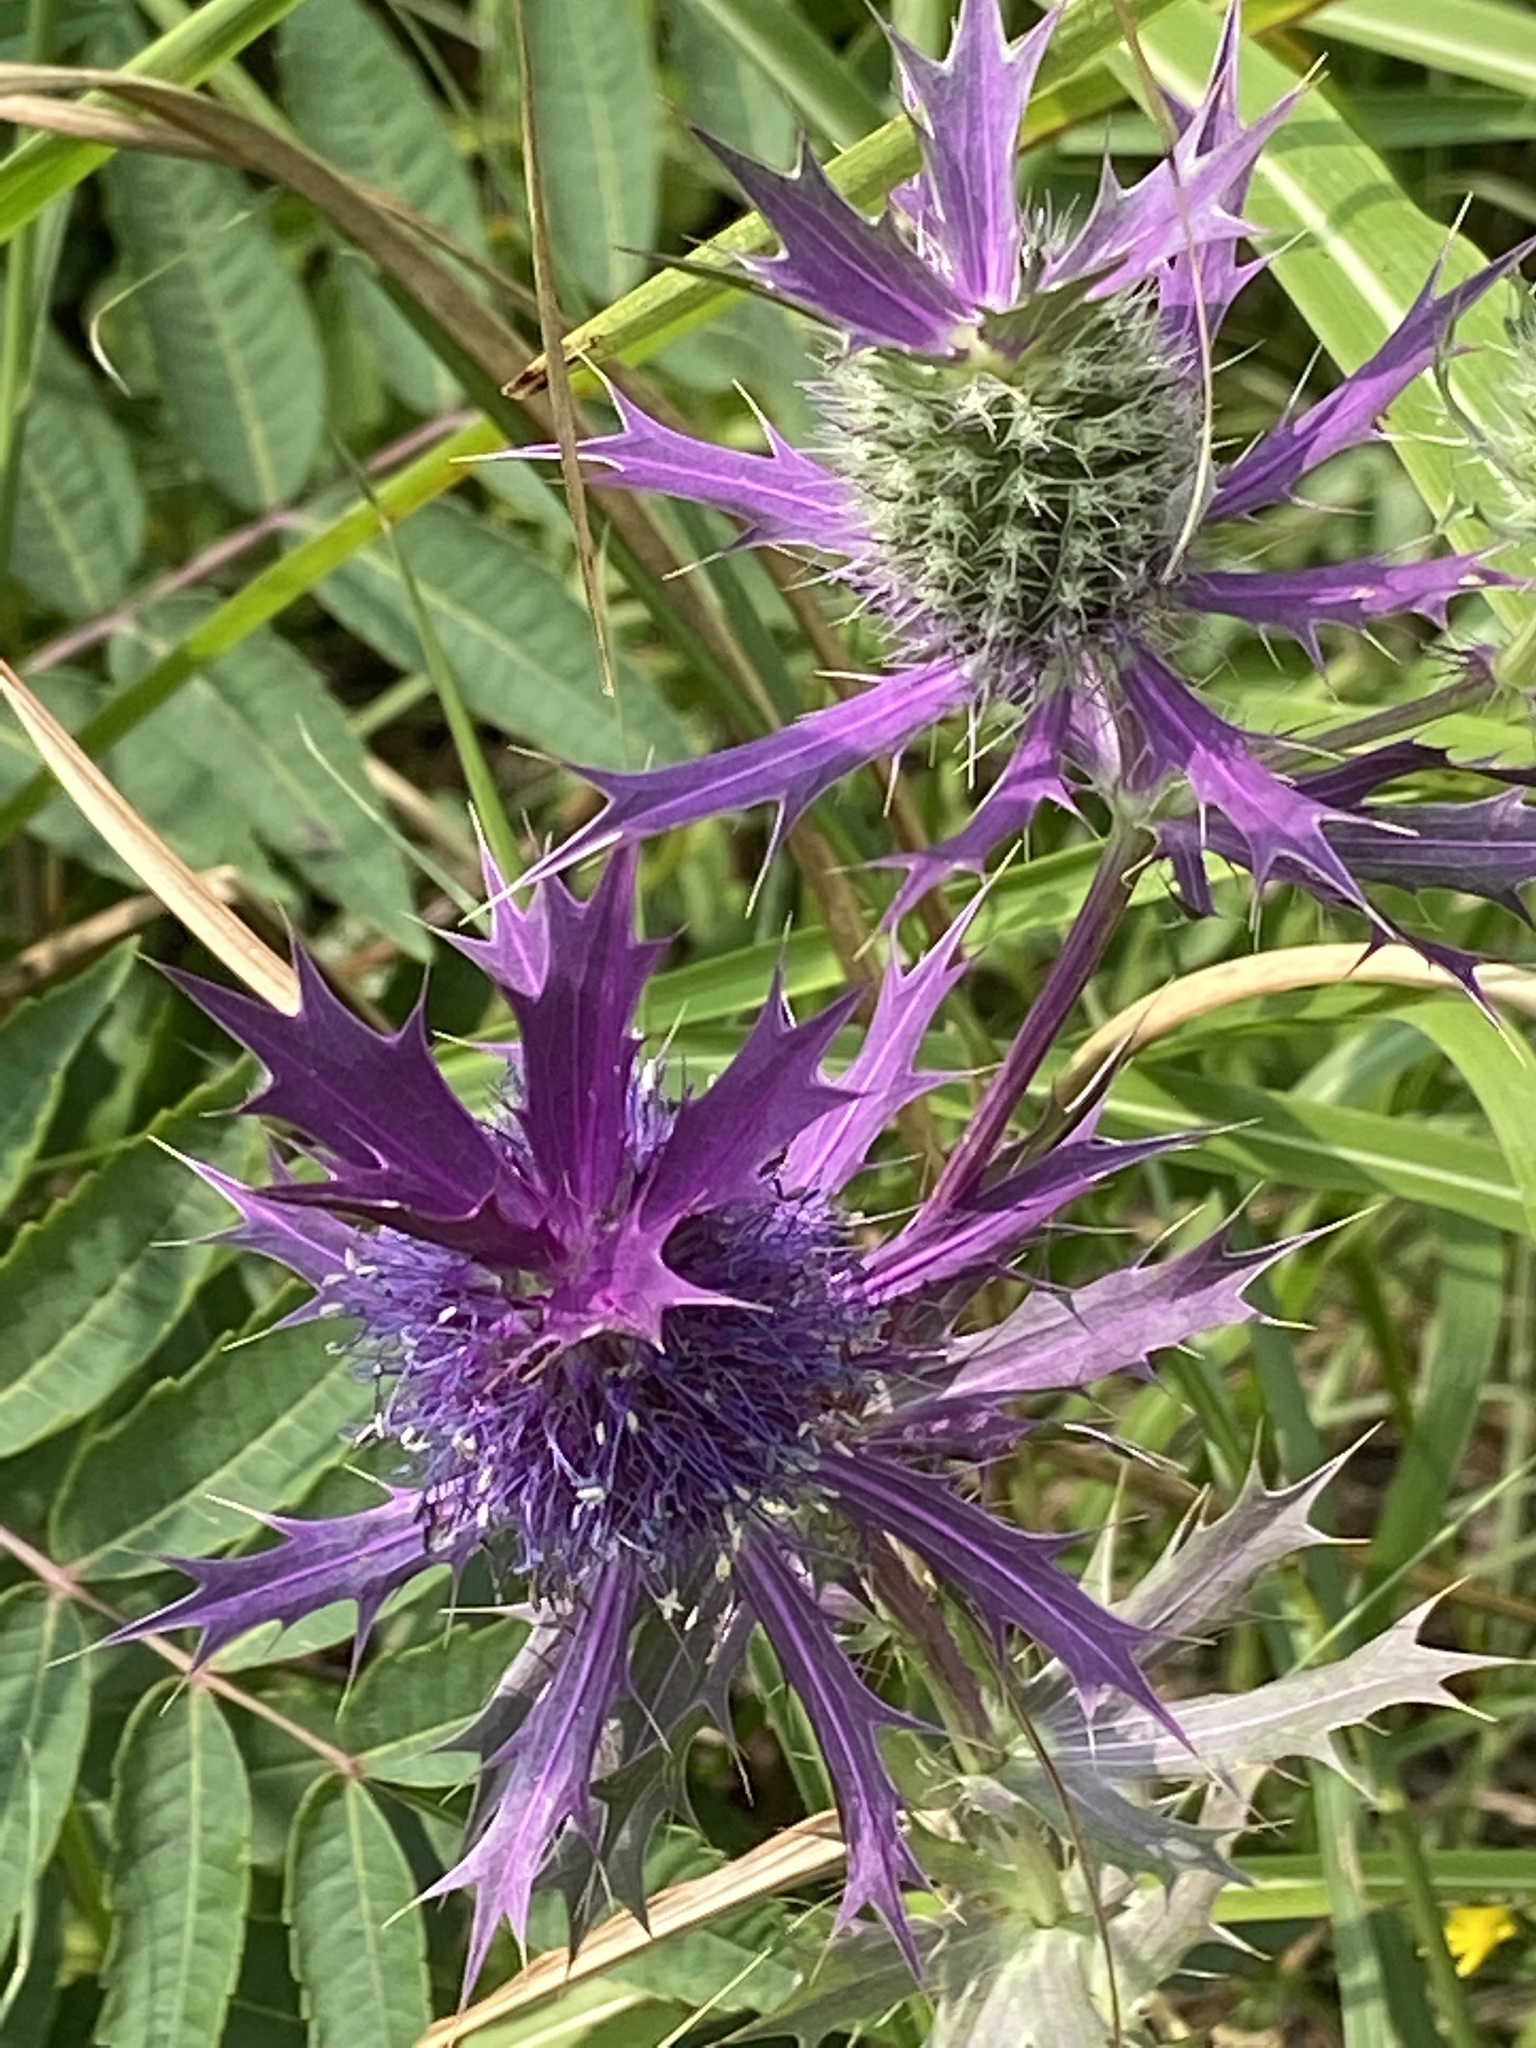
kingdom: Plantae
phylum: Tracheophyta
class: Magnoliopsida
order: Apiales
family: Apiaceae
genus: Eryngium
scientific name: Eryngium leavenworthii
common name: Leavenworth's eryngo
